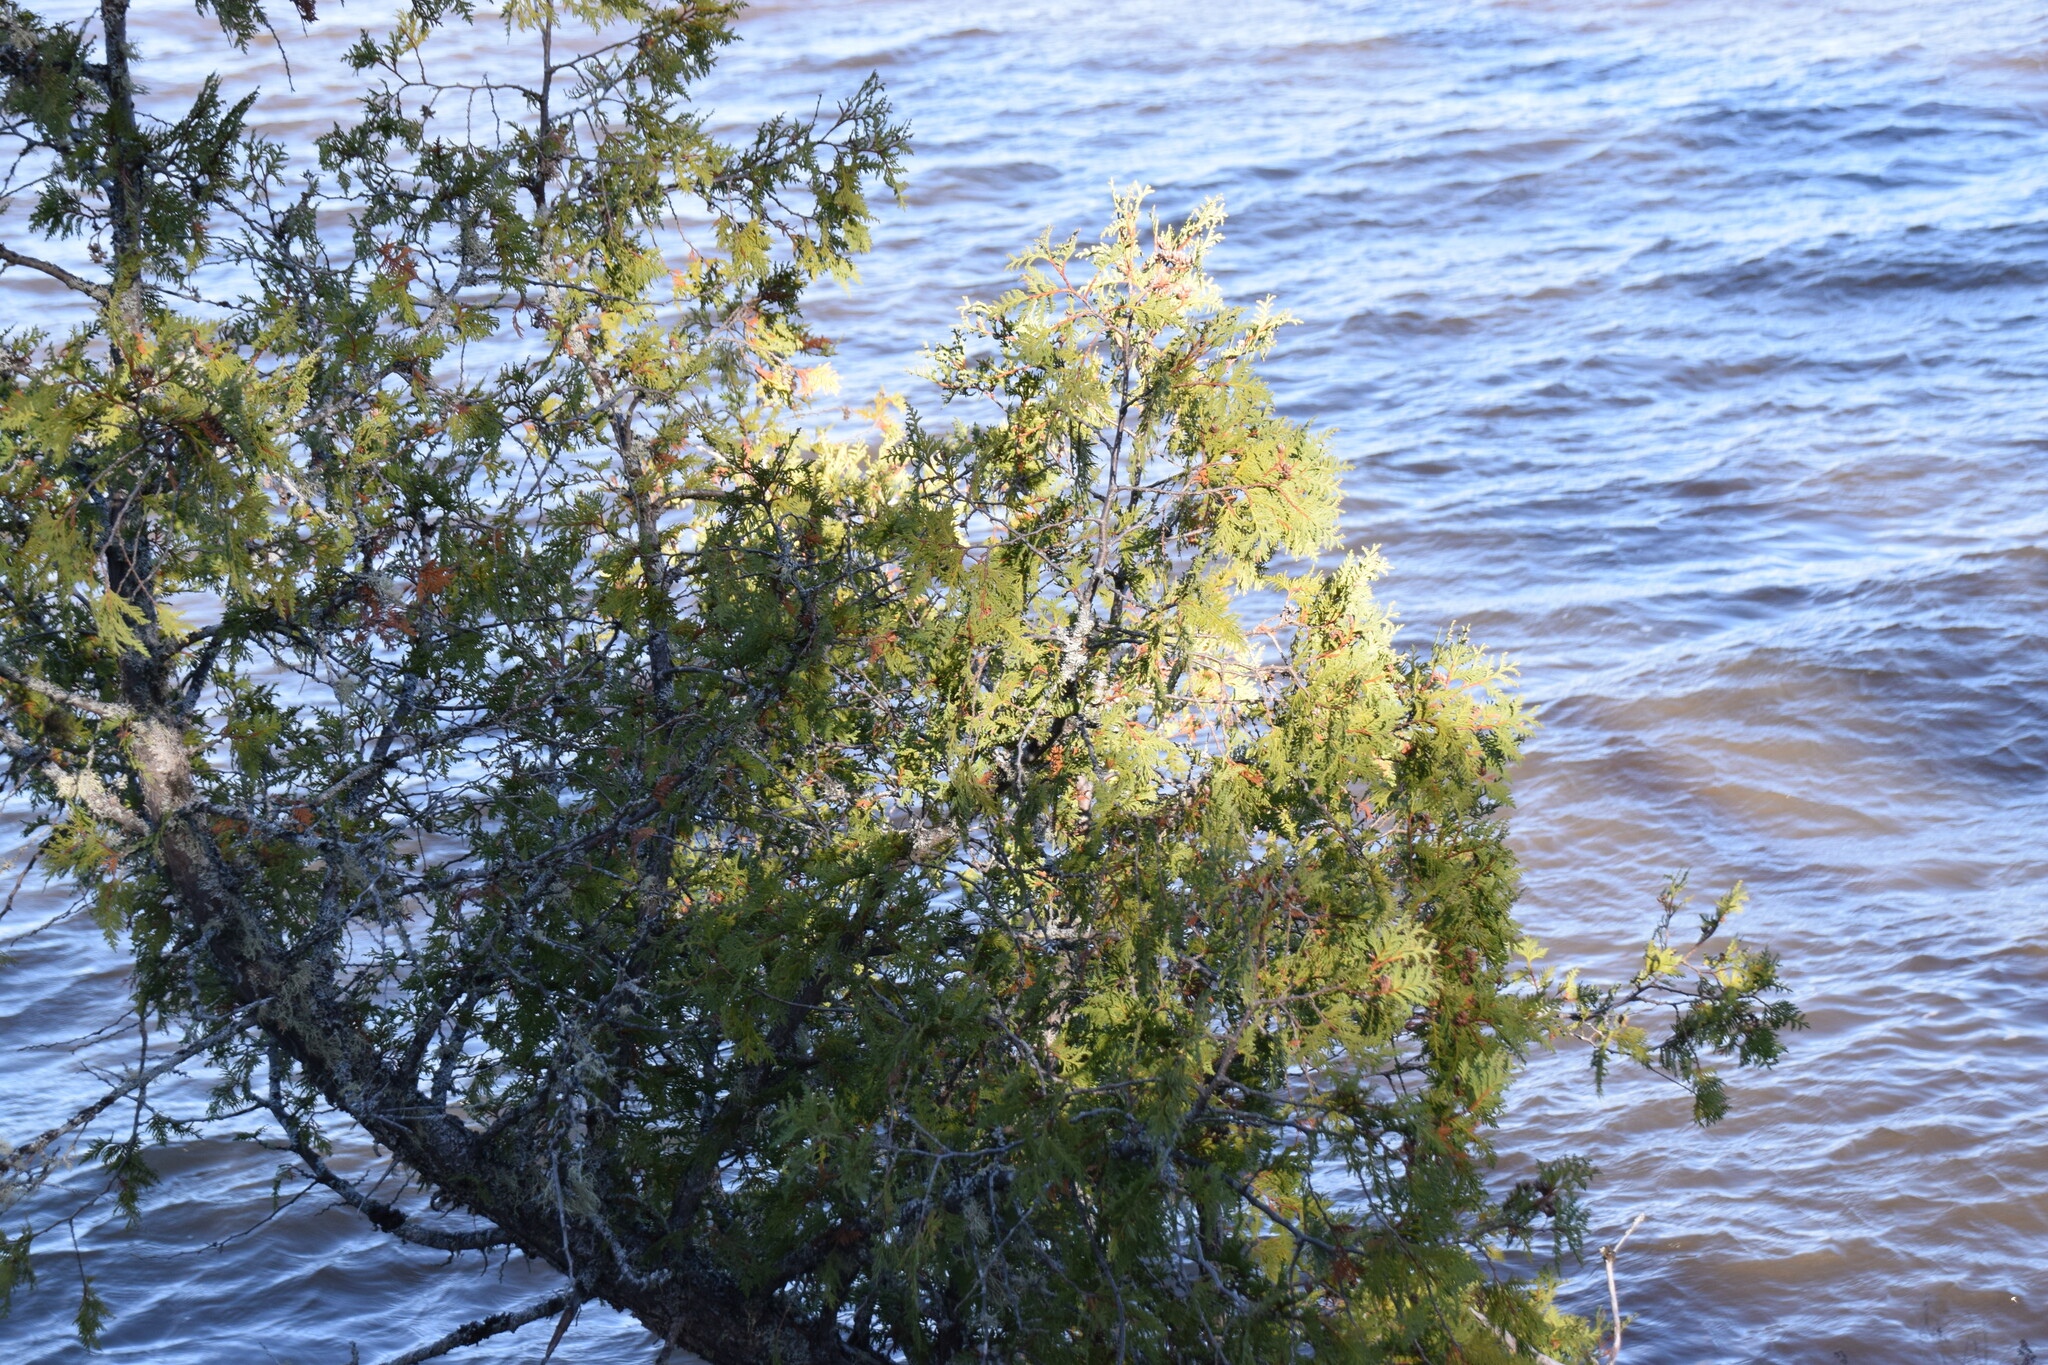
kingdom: Plantae
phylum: Tracheophyta
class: Pinopsida
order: Pinales
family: Cupressaceae
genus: Thuja
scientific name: Thuja occidentalis
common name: Northern white-cedar
